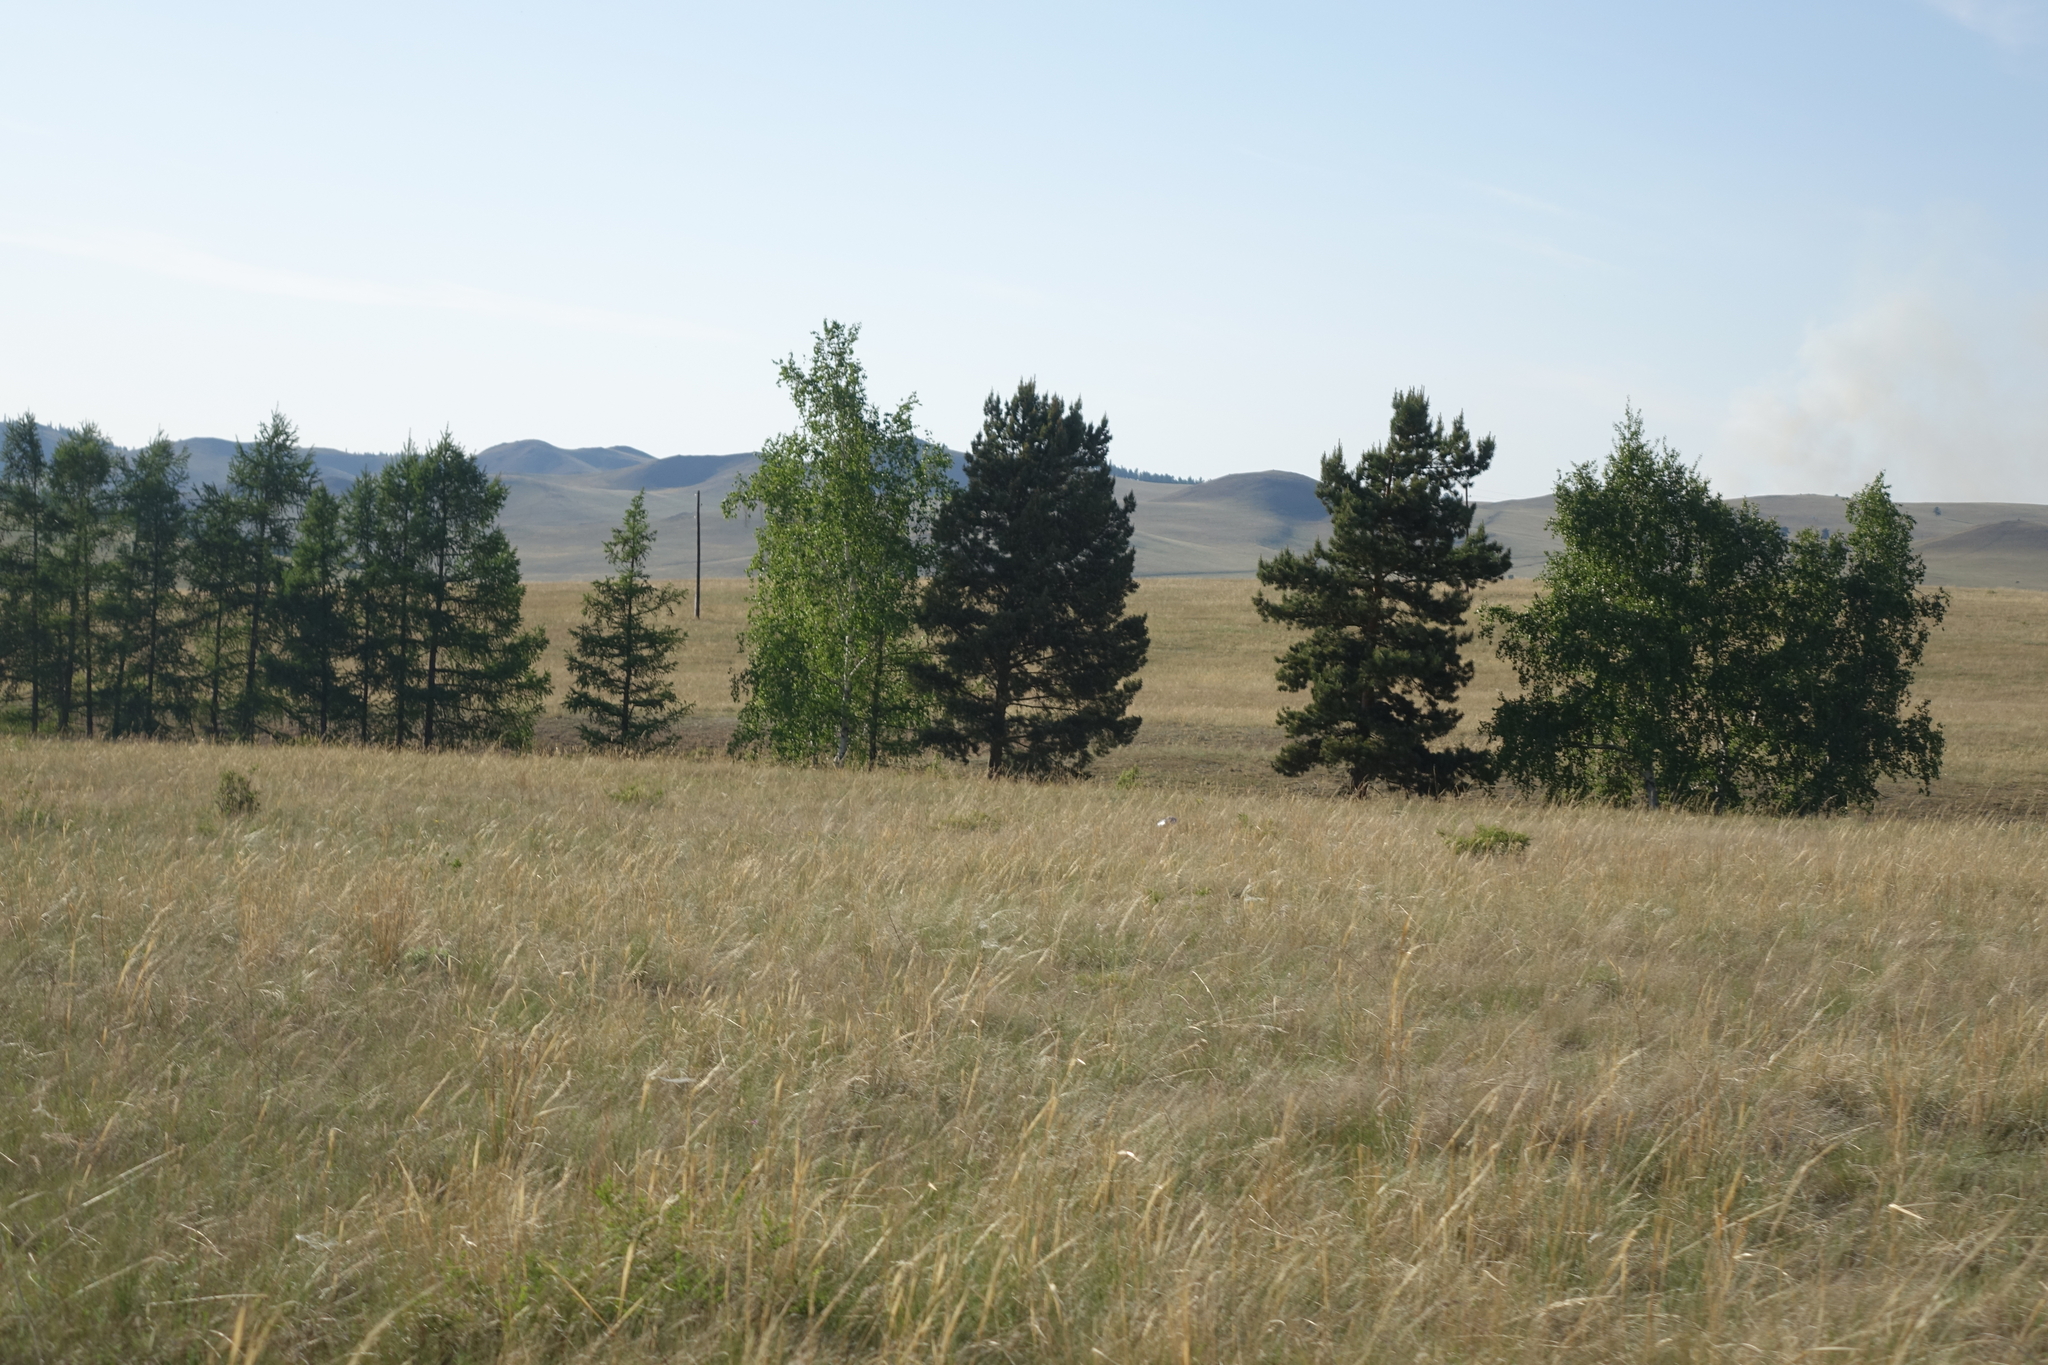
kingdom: Plantae
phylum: Tracheophyta
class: Pinopsida
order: Pinales
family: Pinaceae
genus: Larix
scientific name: Larix sibirica
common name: Siberian larch
